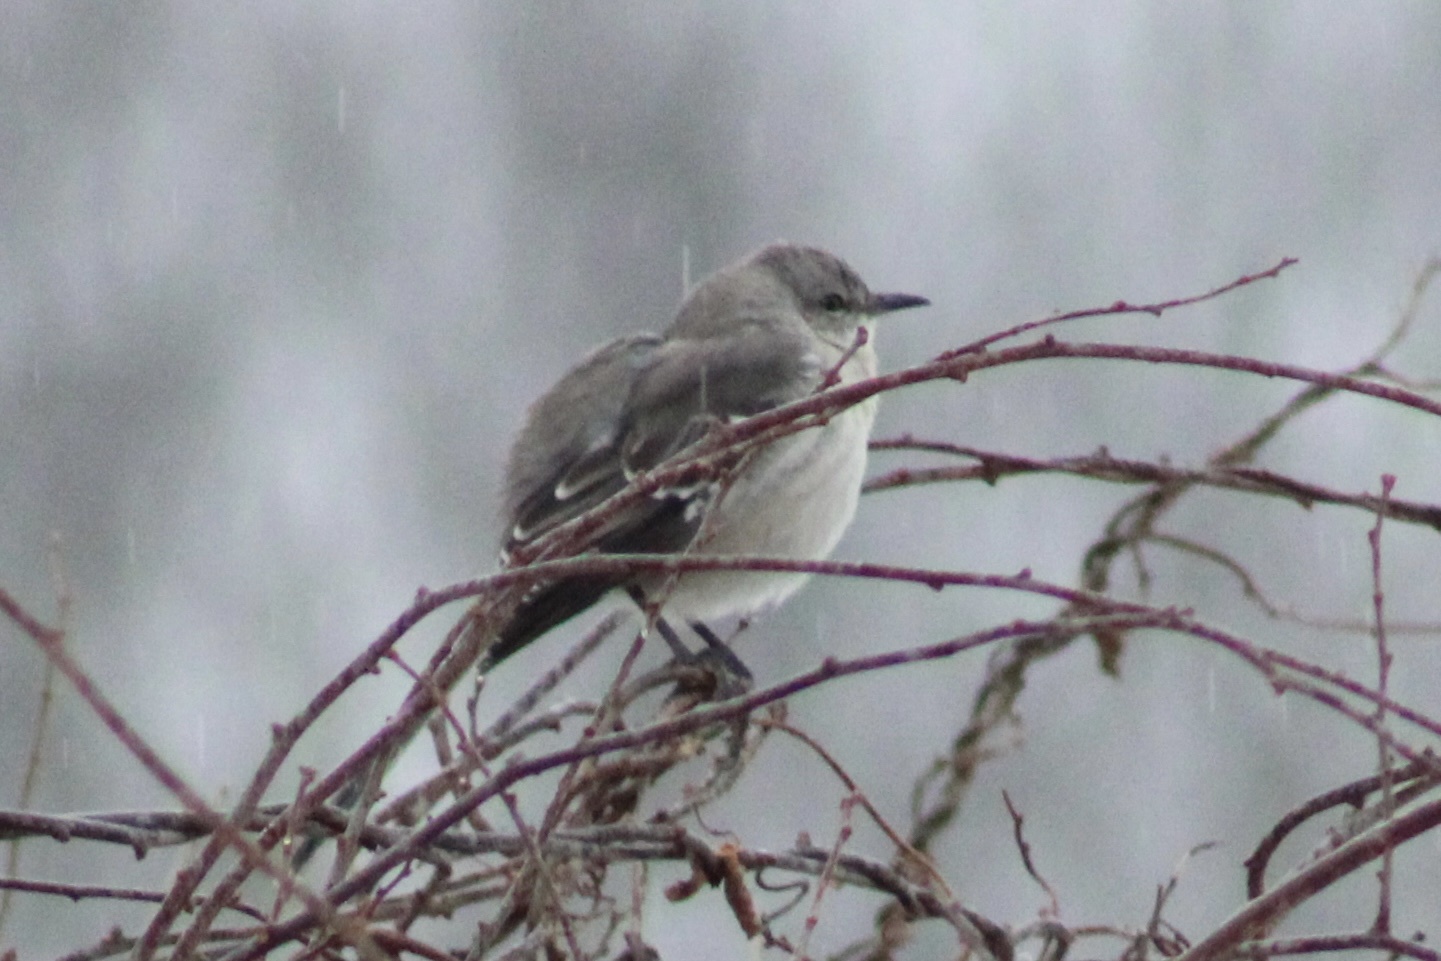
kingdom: Animalia
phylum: Chordata
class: Aves
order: Passeriformes
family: Mimidae
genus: Mimus
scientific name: Mimus polyglottos
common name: Northern mockingbird
